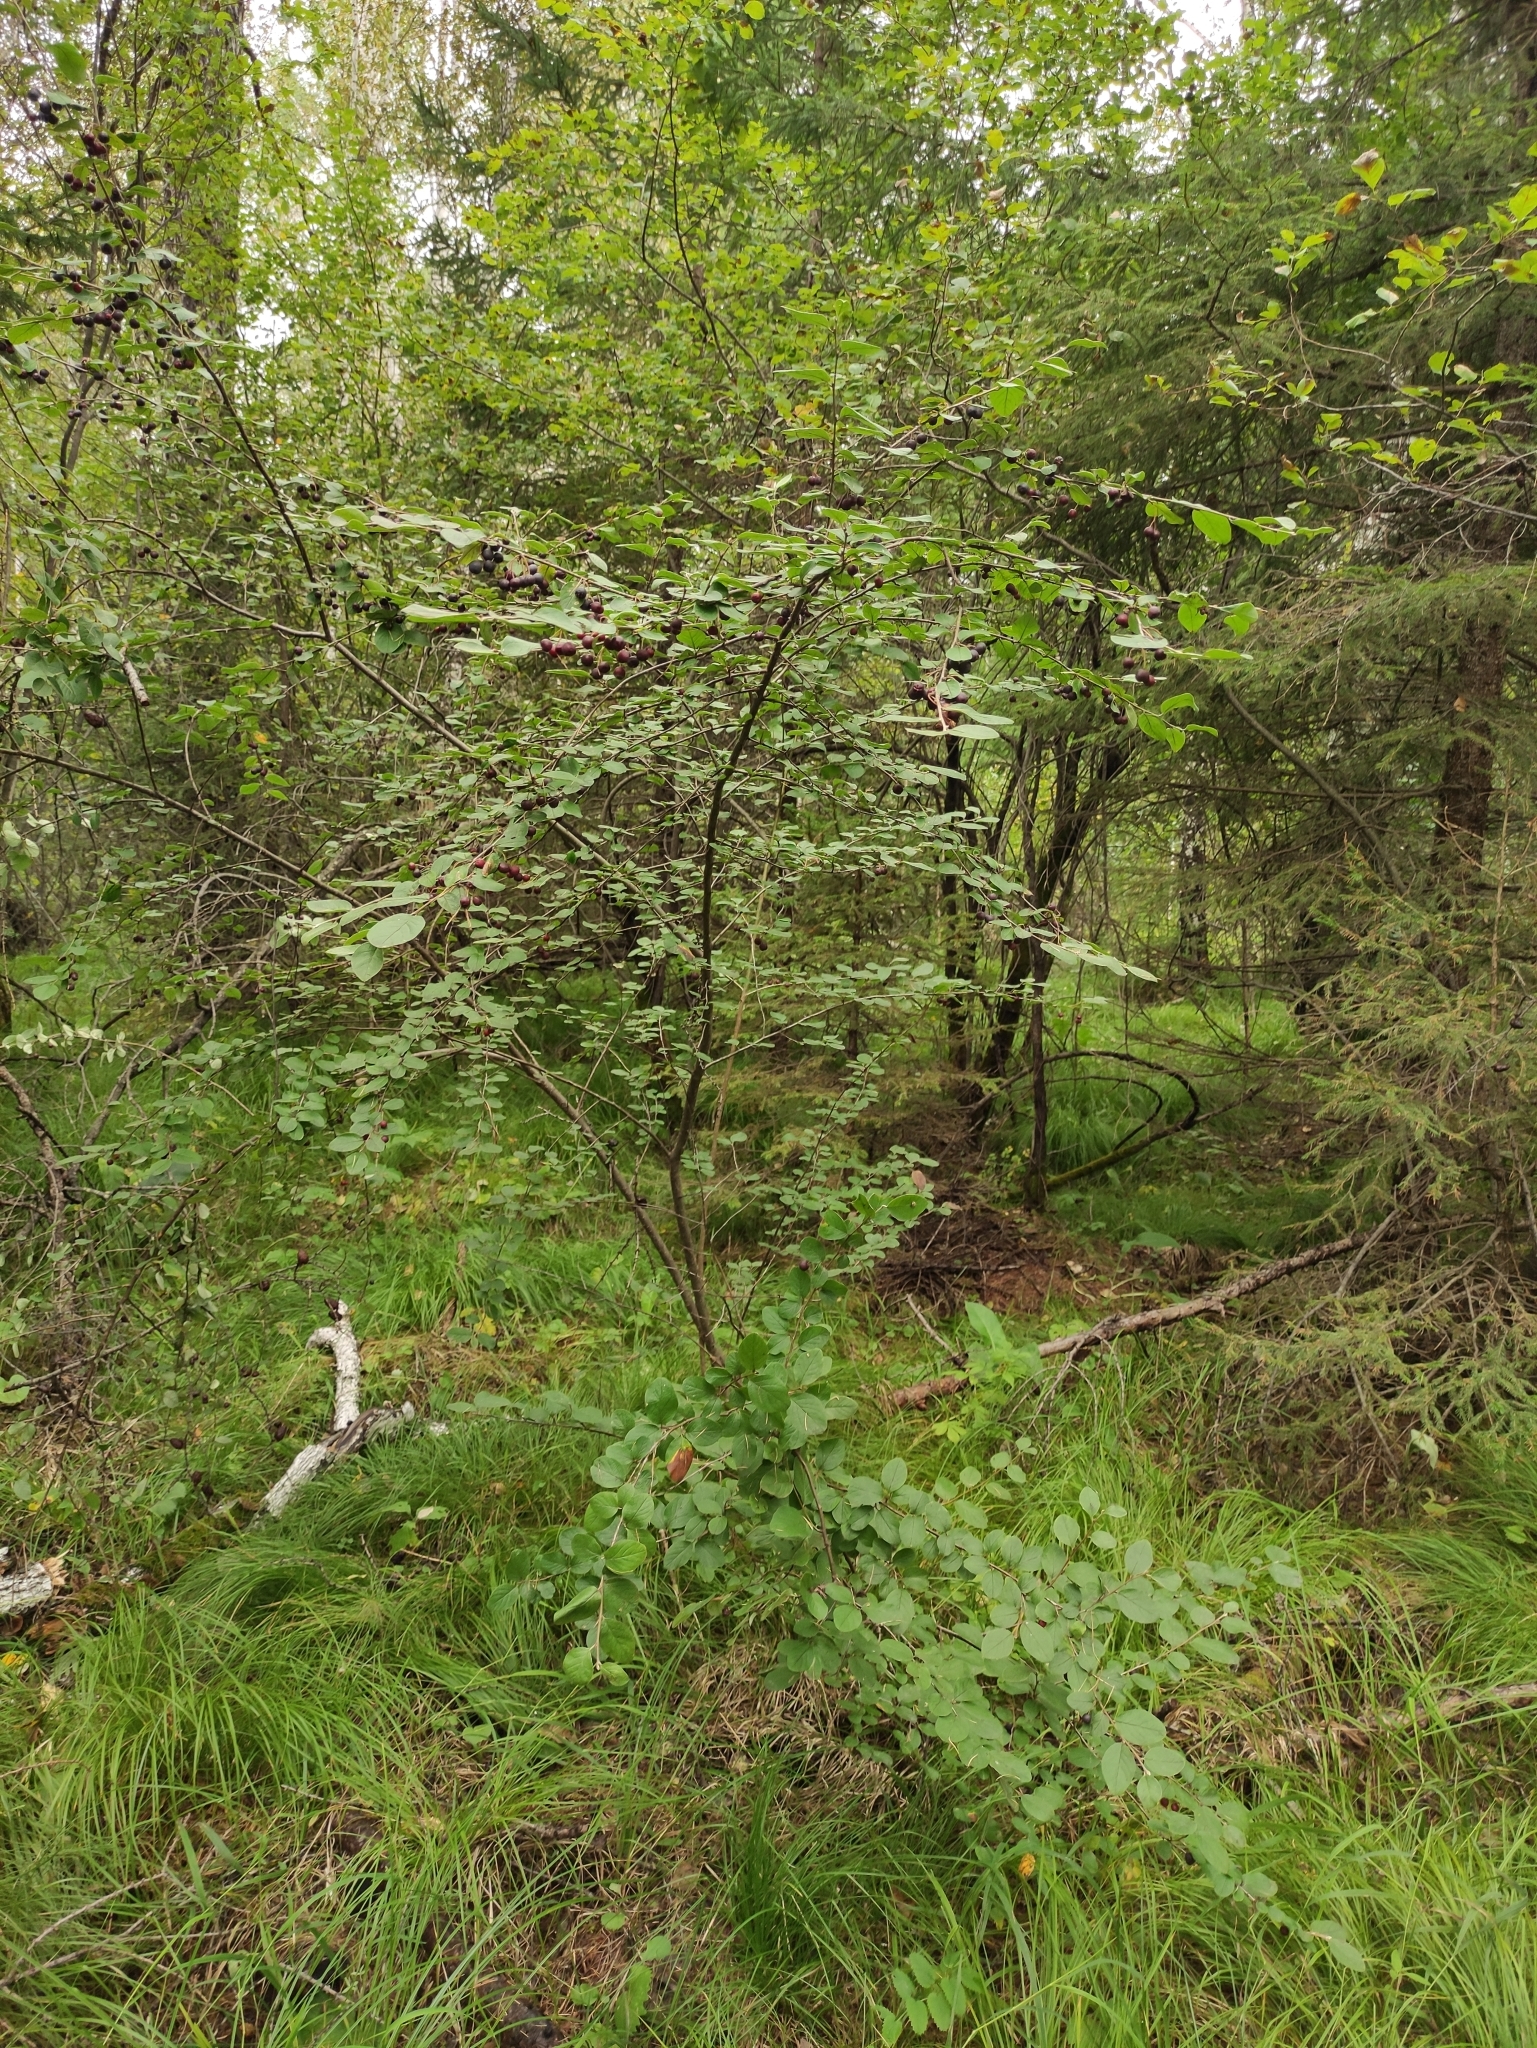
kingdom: Plantae
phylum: Tracheophyta
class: Magnoliopsida
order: Rosales
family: Rosaceae
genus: Cotoneaster
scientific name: Cotoneaster melanocarpus
